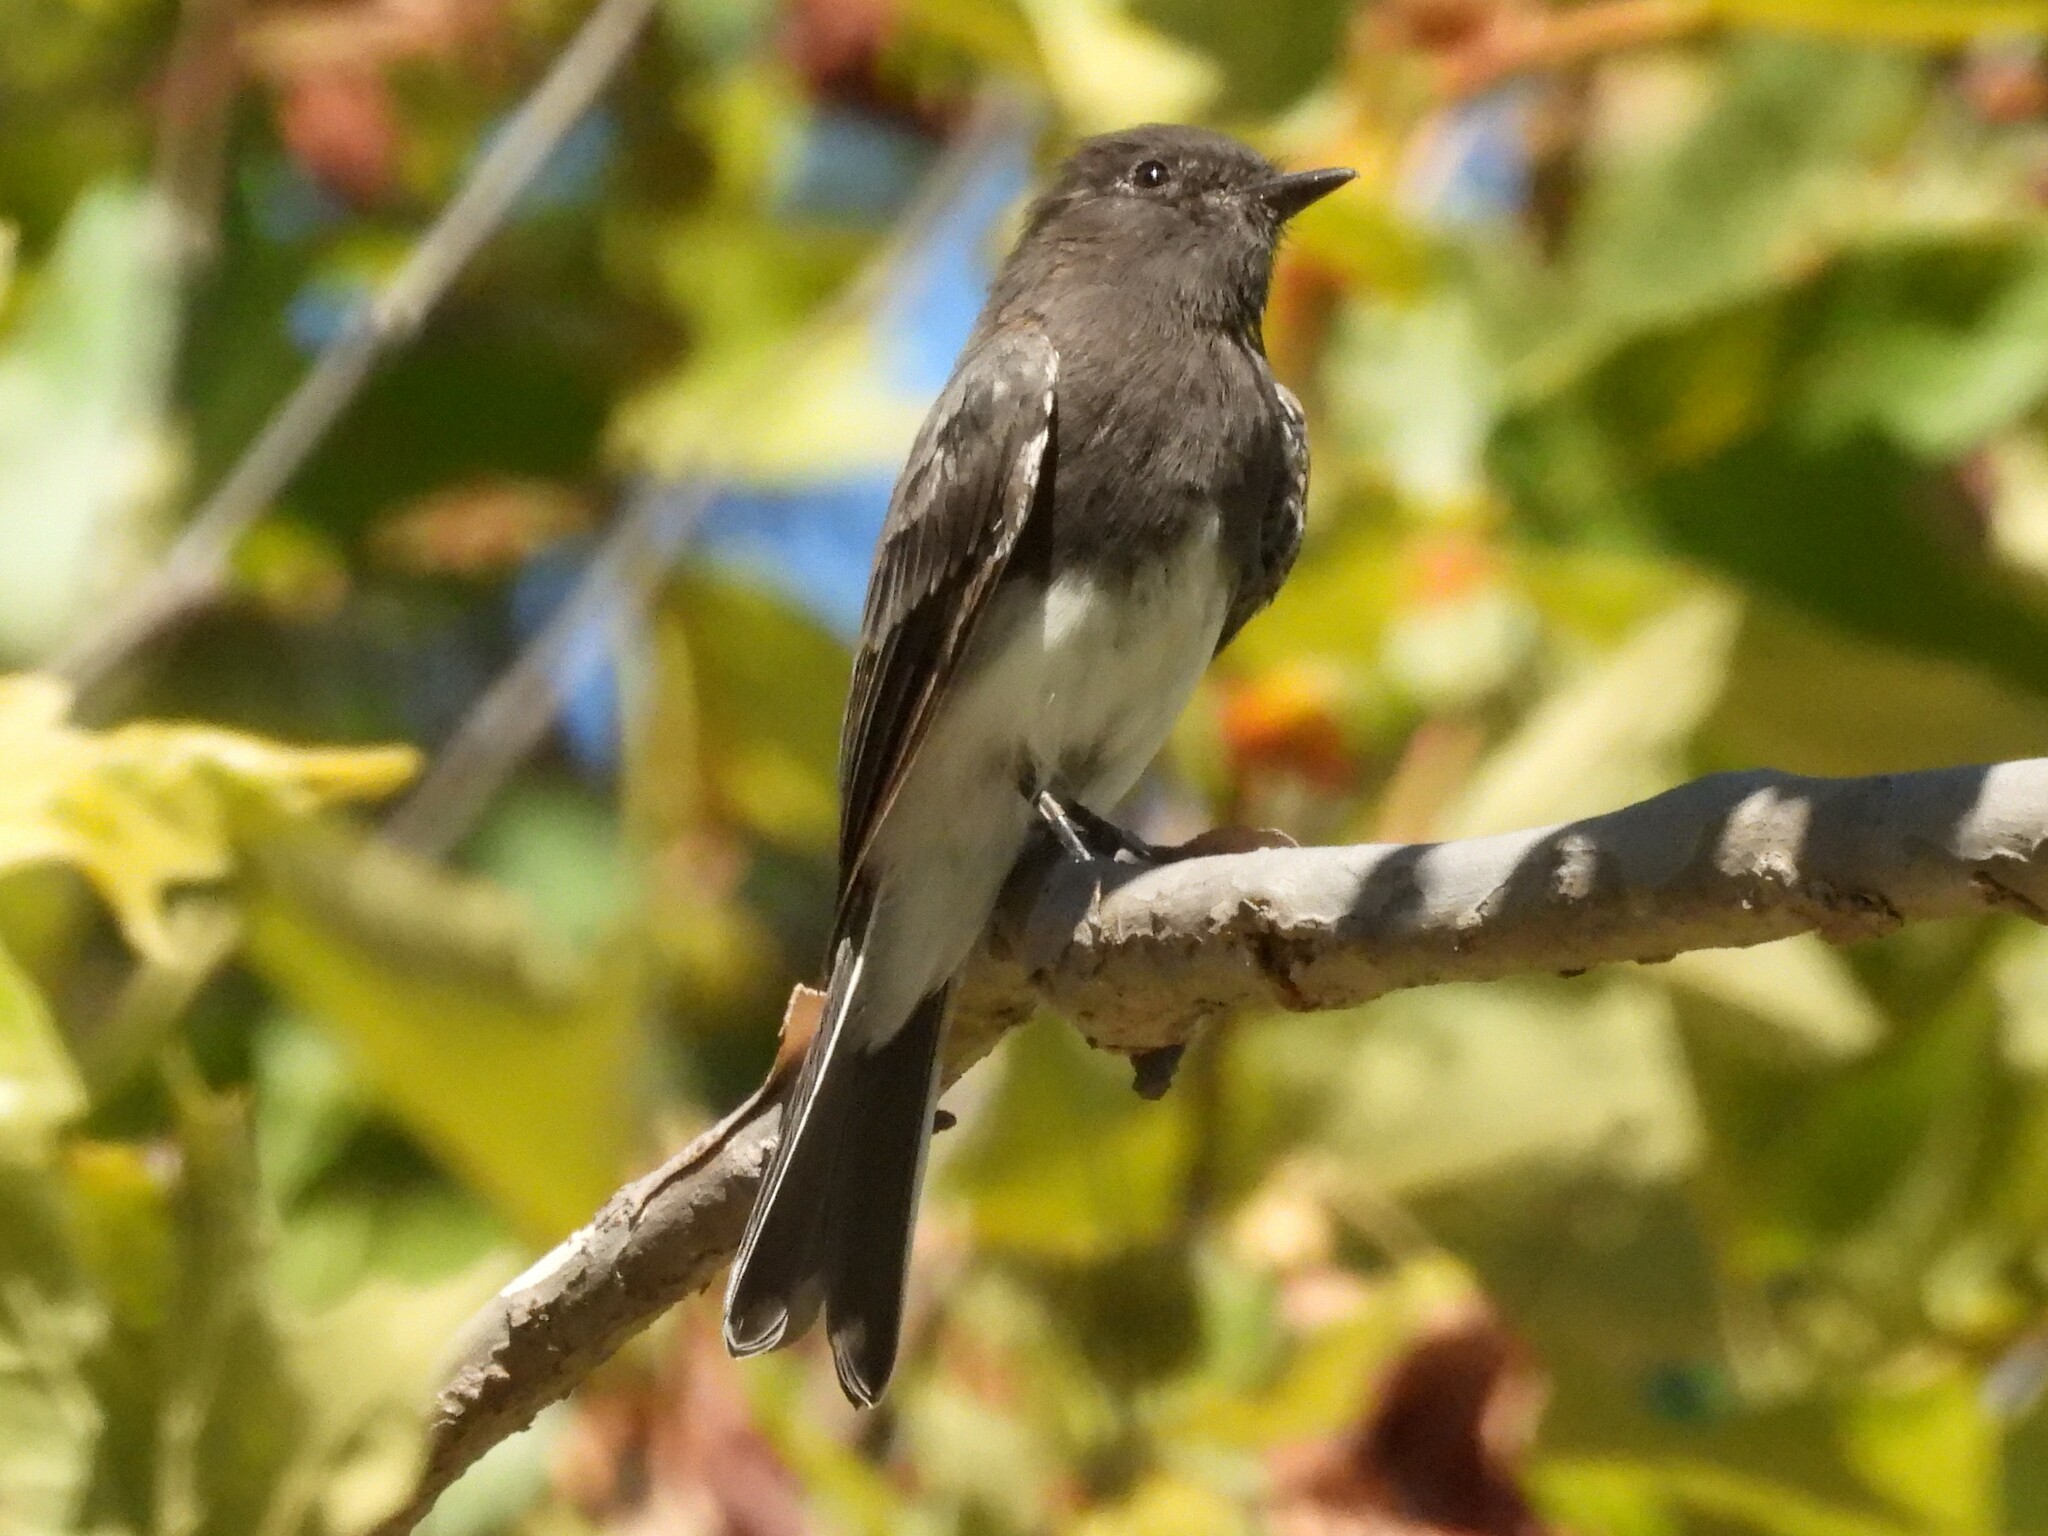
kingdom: Animalia
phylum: Chordata
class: Aves
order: Passeriformes
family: Tyrannidae
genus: Sayornis
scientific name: Sayornis nigricans
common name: Black phoebe
